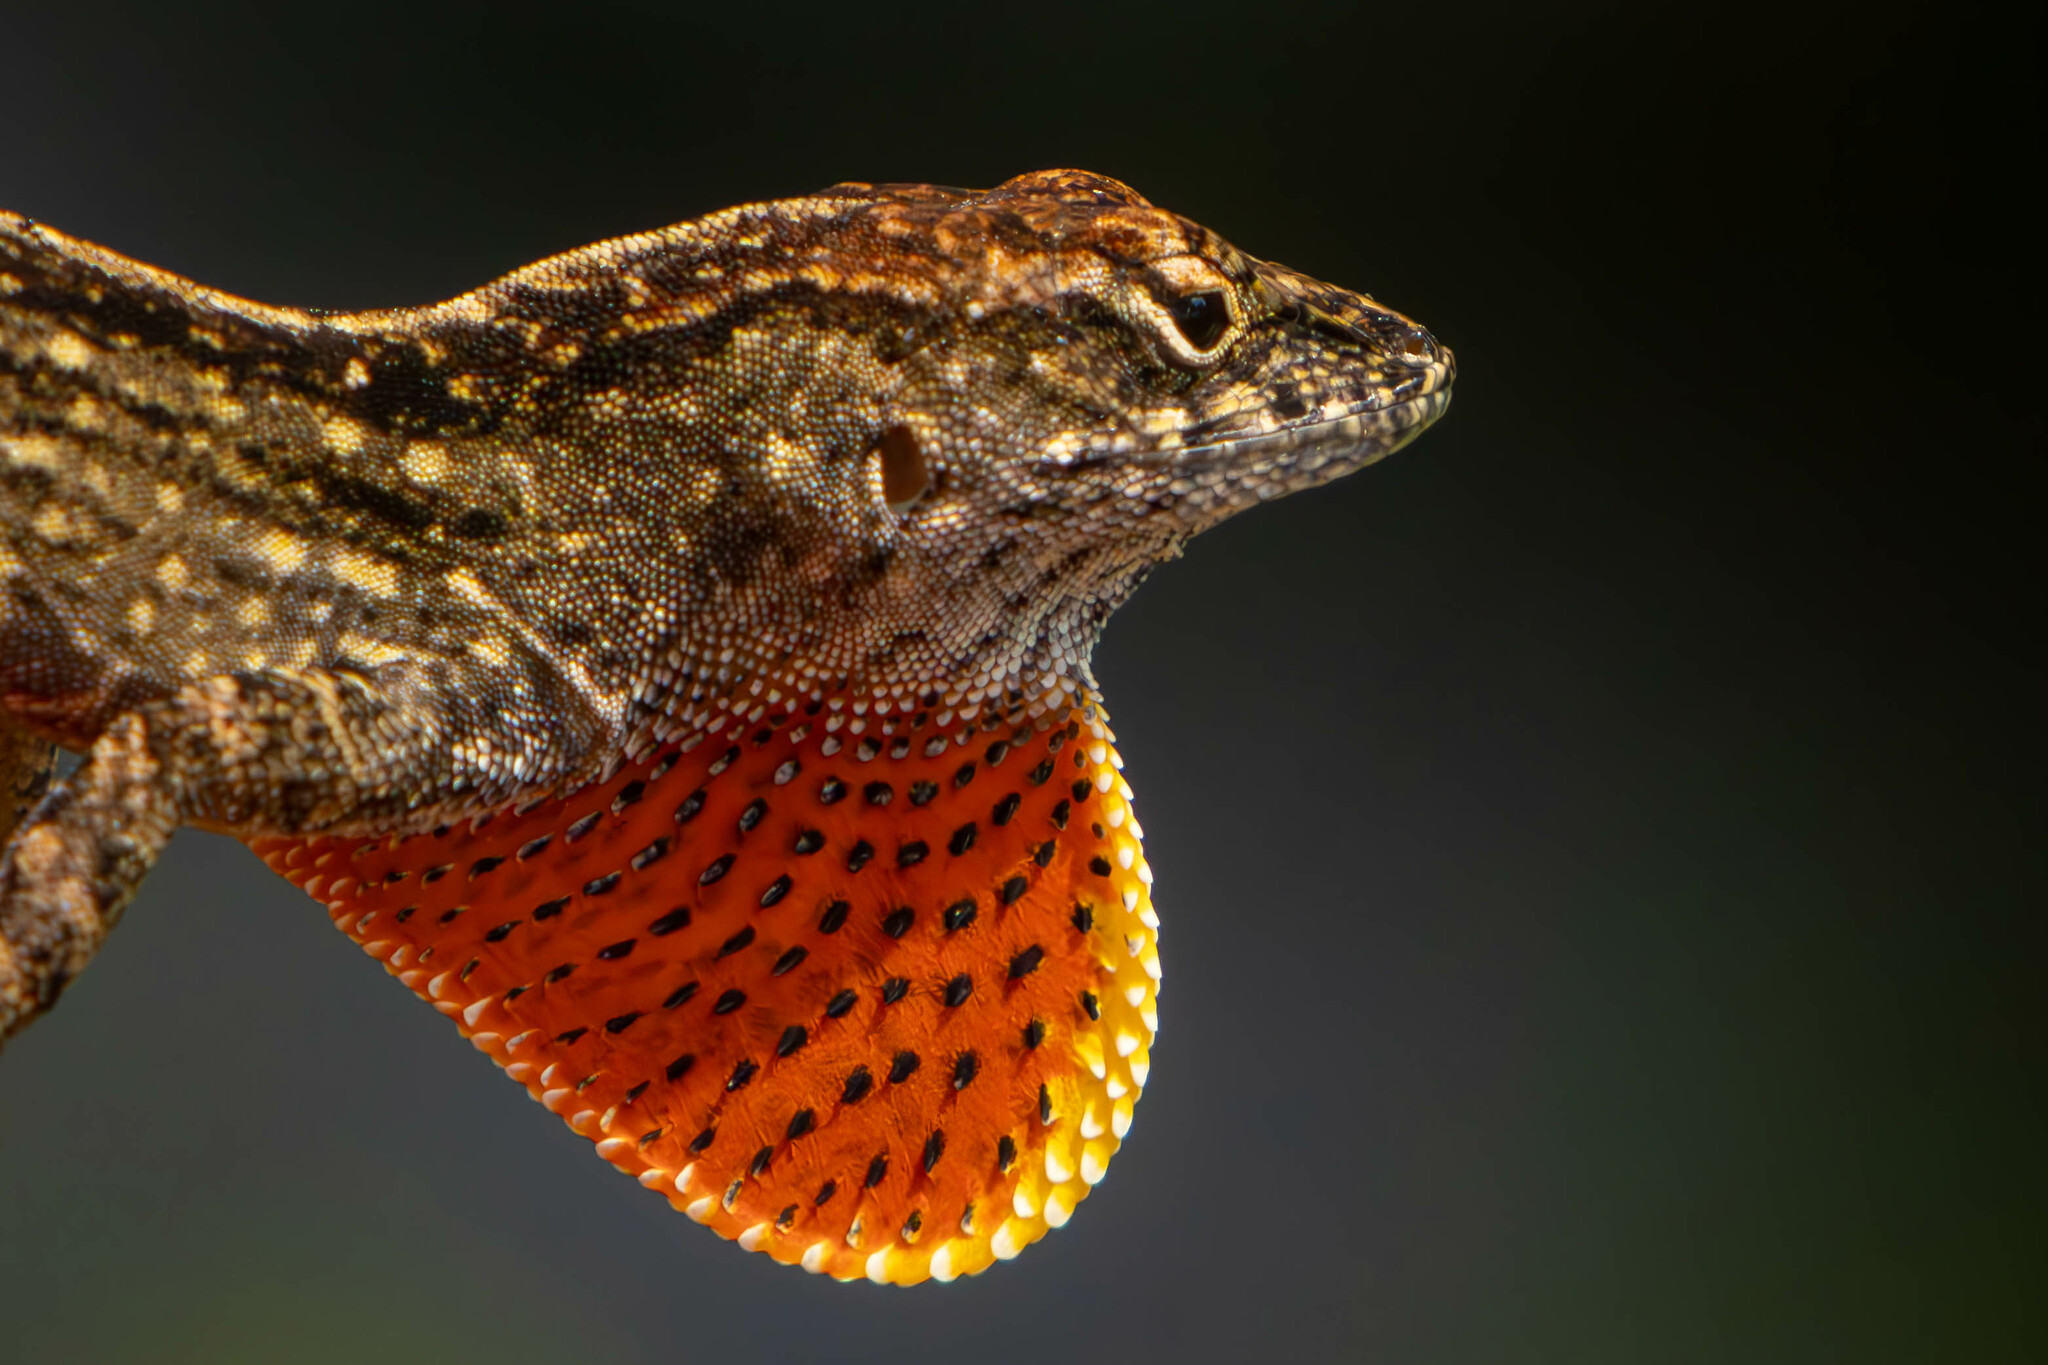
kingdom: Animalia
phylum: Chordata
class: Squamata
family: Dactyloidae
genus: Anolis
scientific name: Anolis sagrei
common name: Brown anole
